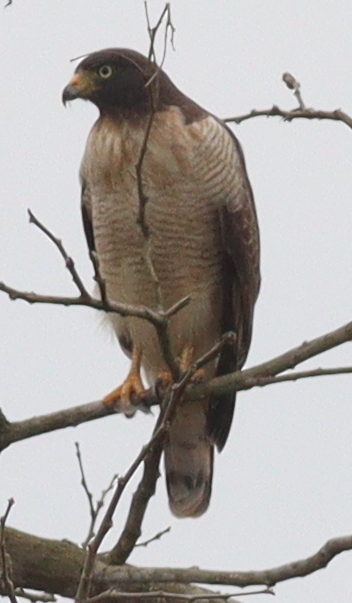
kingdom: Animalia
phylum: Chordata
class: Aves
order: Accipitriformes
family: Accipitridae
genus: Rupornis
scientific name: Rupornis magnirostris
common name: Roadside hawk
